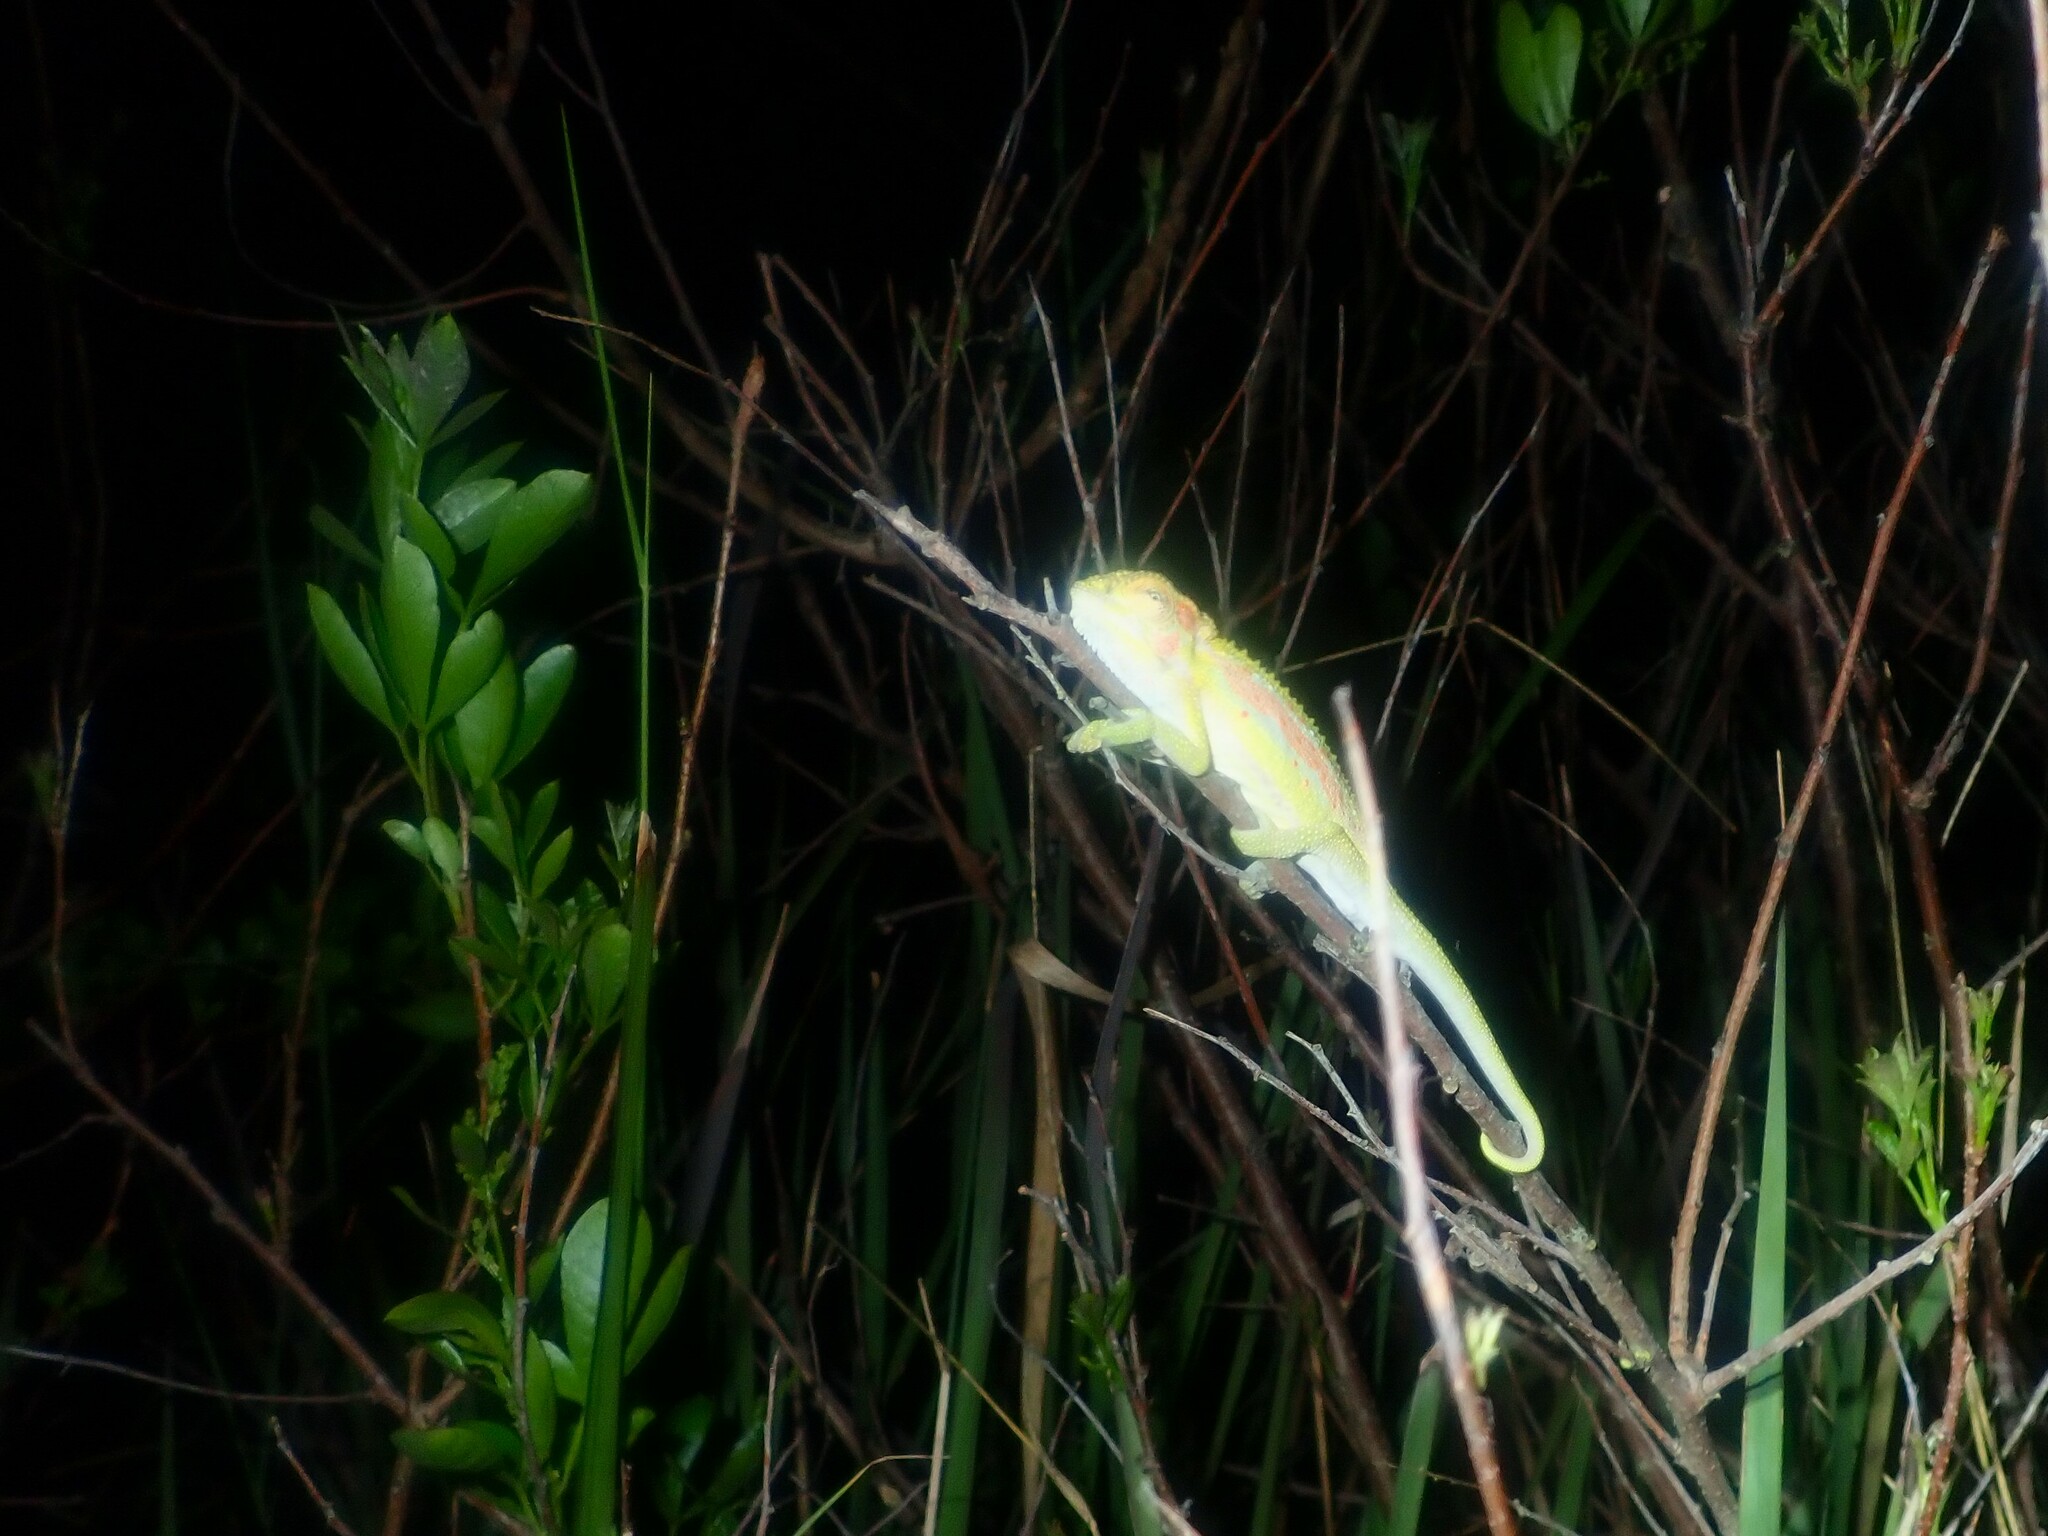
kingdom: Animalia
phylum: Chordata
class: Squamata
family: Chamaeleonidae
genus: Bradypodion
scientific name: Bradypodion pumilum
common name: Cape dwarf chameleon
